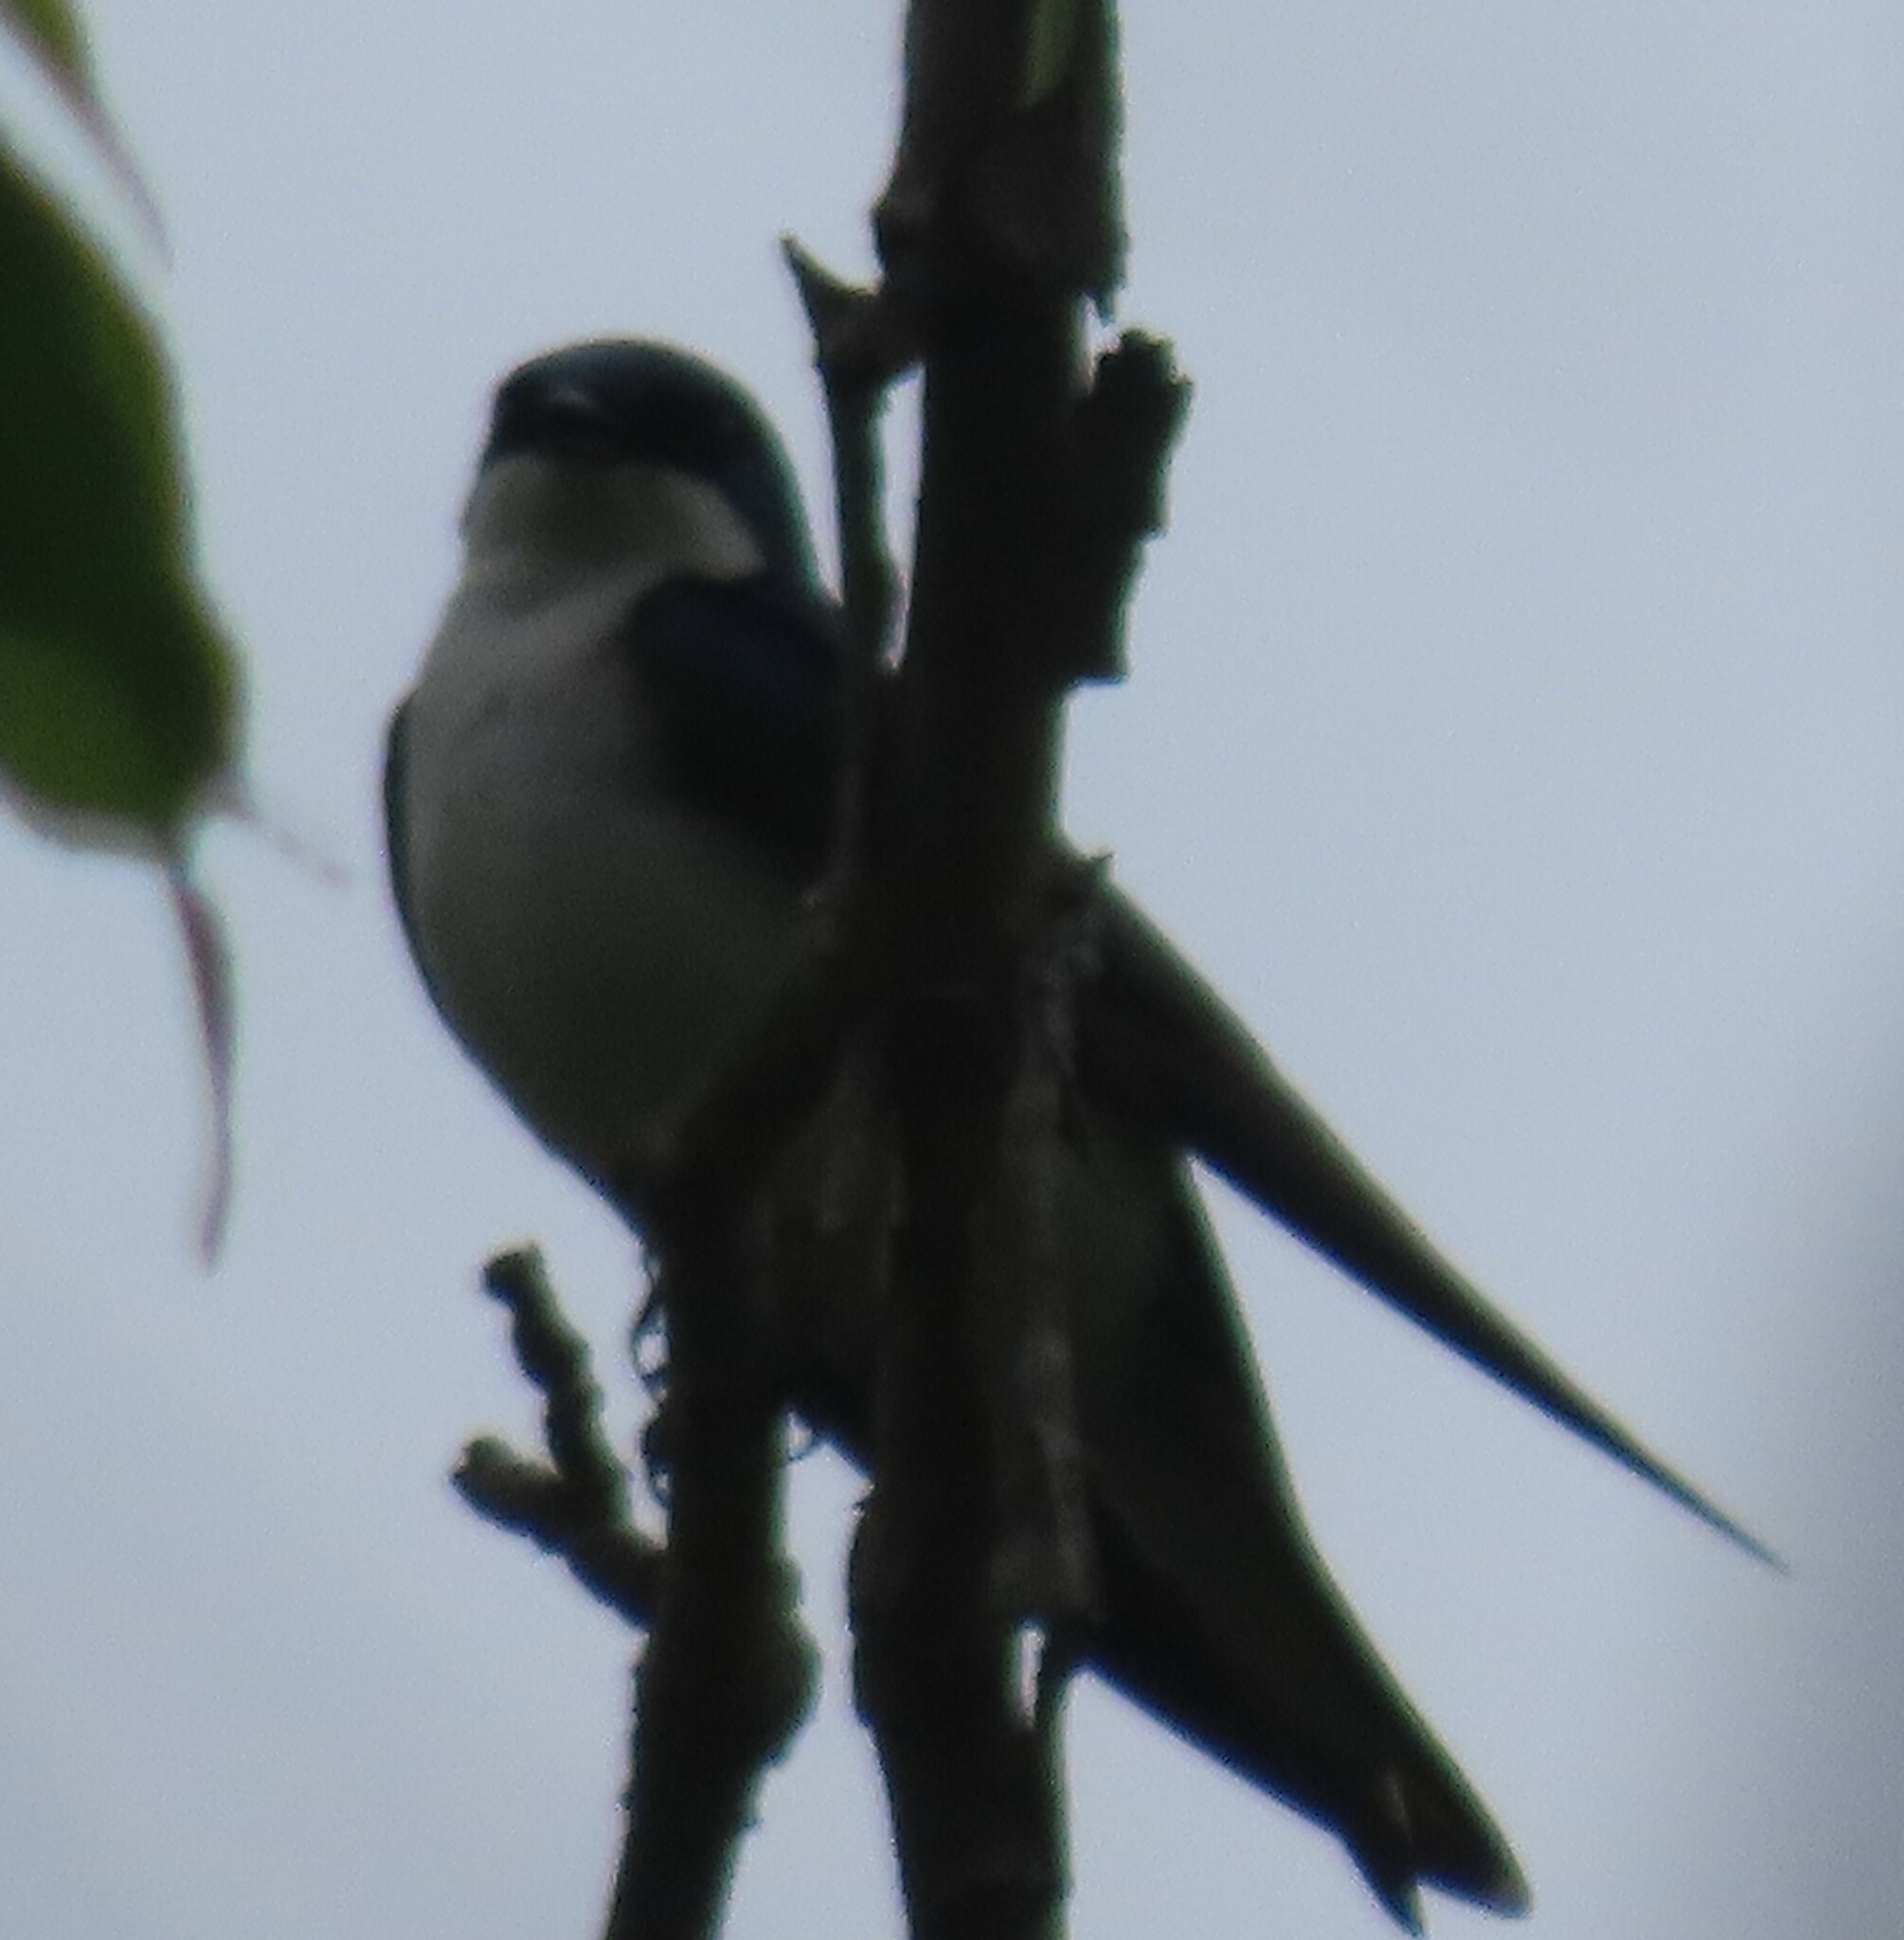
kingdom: Animalia
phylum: Chordata
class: Aves
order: Passeriformes
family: Hirundinidae
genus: Tachycineta
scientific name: Tachycineta bicolor
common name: Tree swallow
